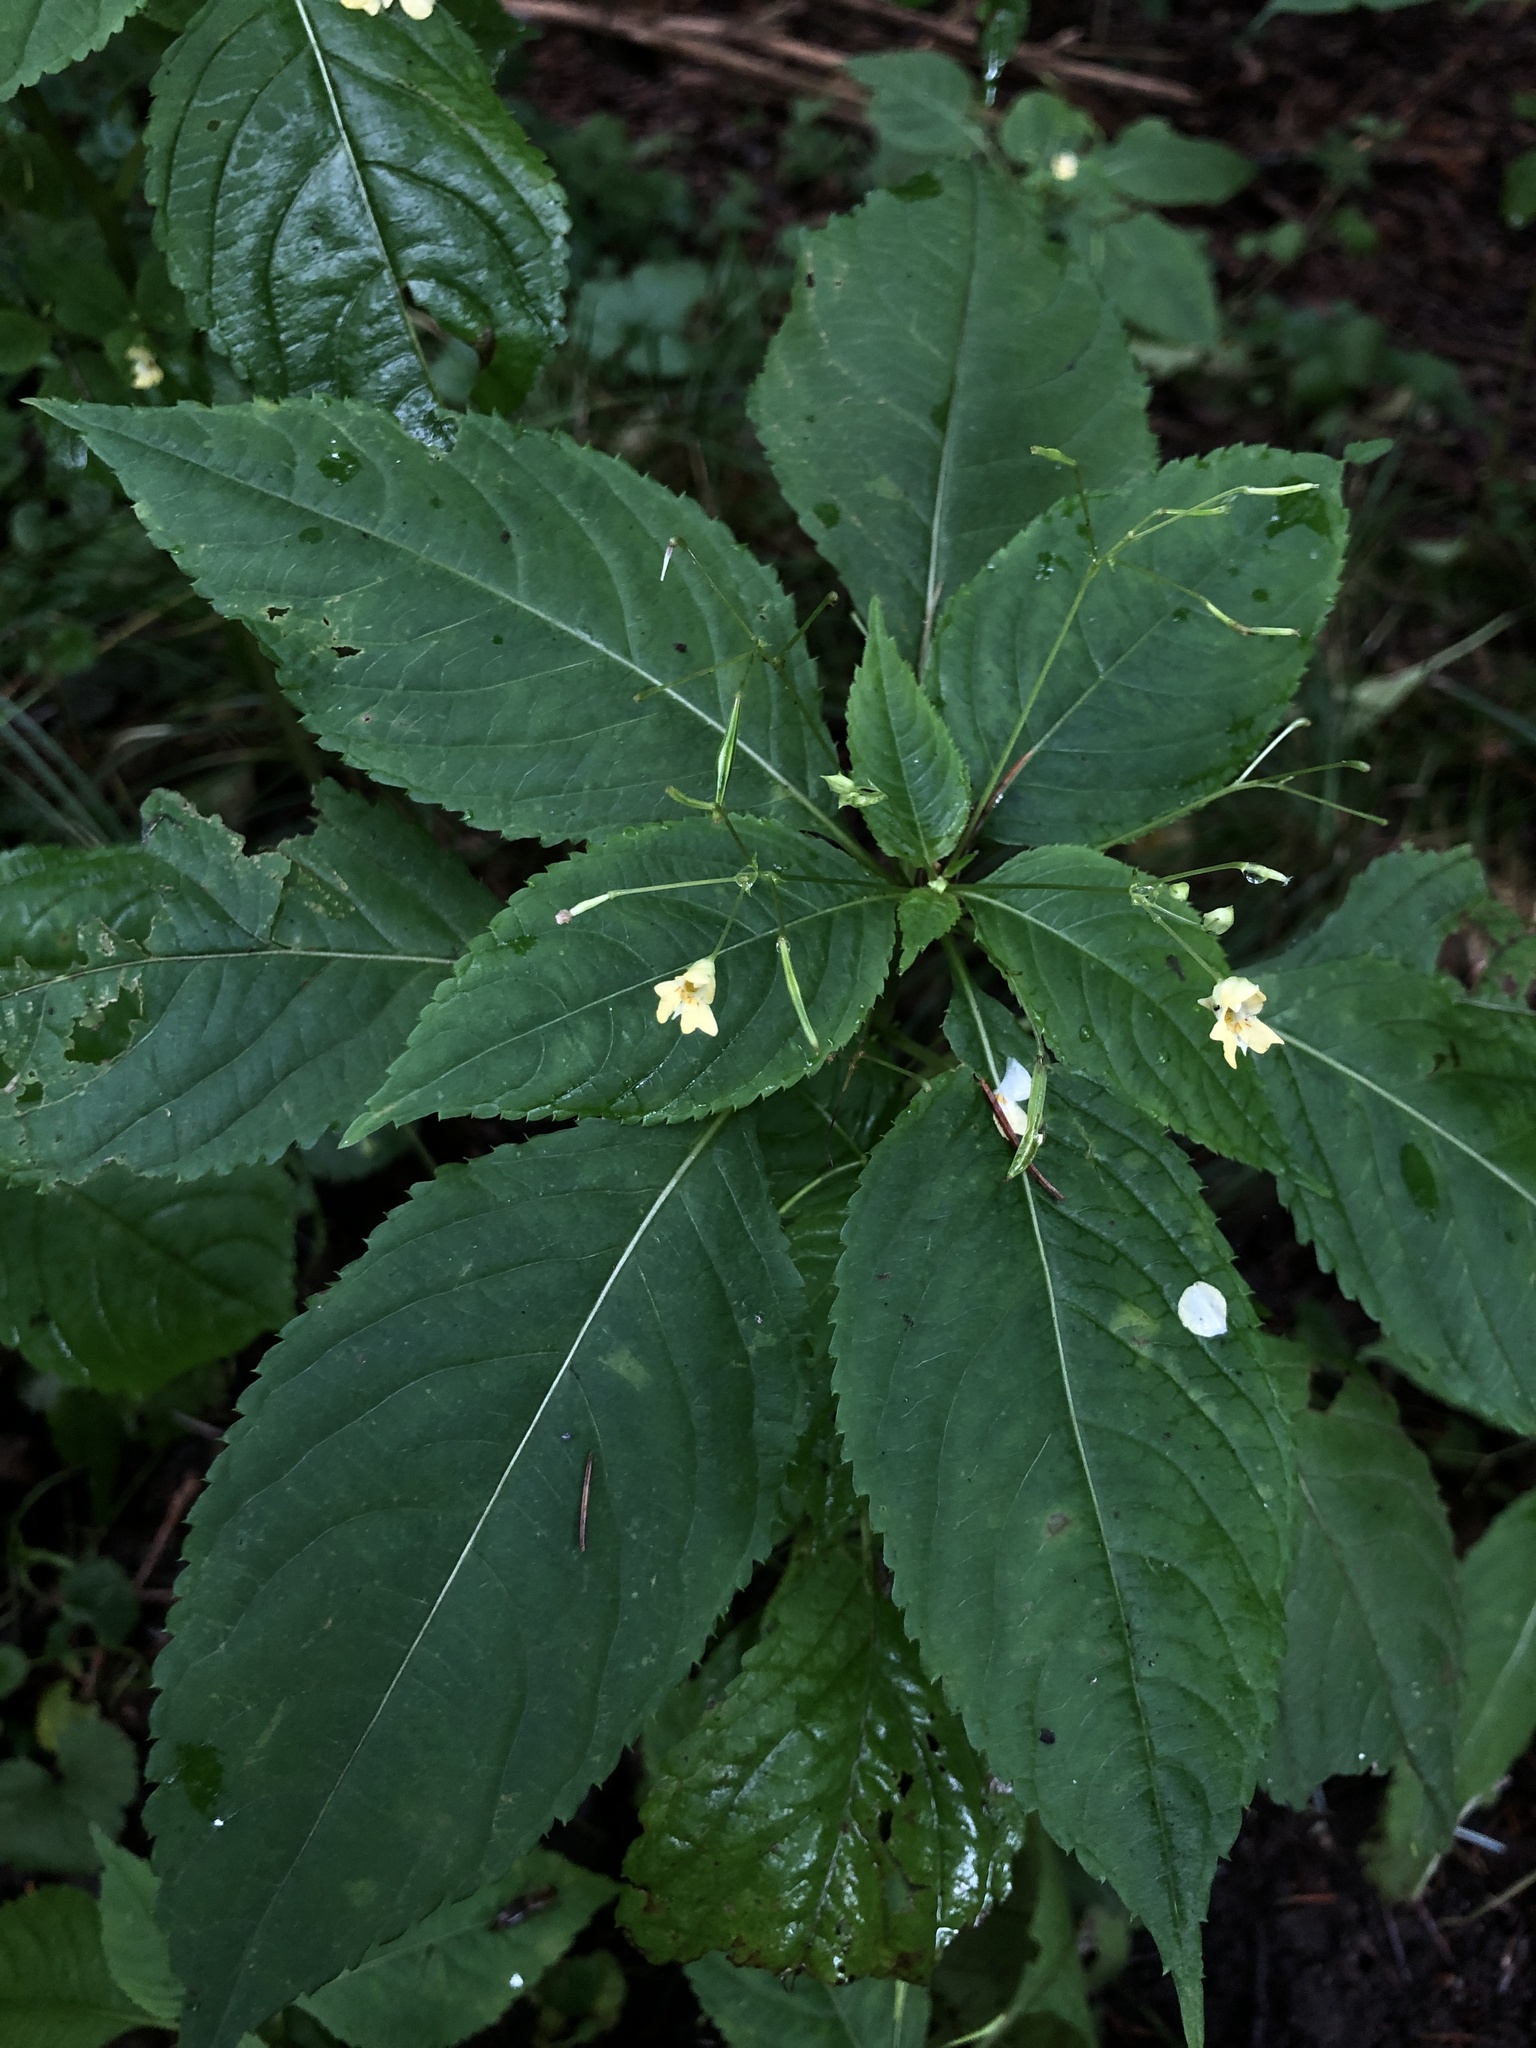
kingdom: Plantae
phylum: Tracheophyta
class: Magnoliopsida
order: Ericales
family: Balsaminaceae
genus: Impatiens
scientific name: Impatiens parviflora
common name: Small balsam
